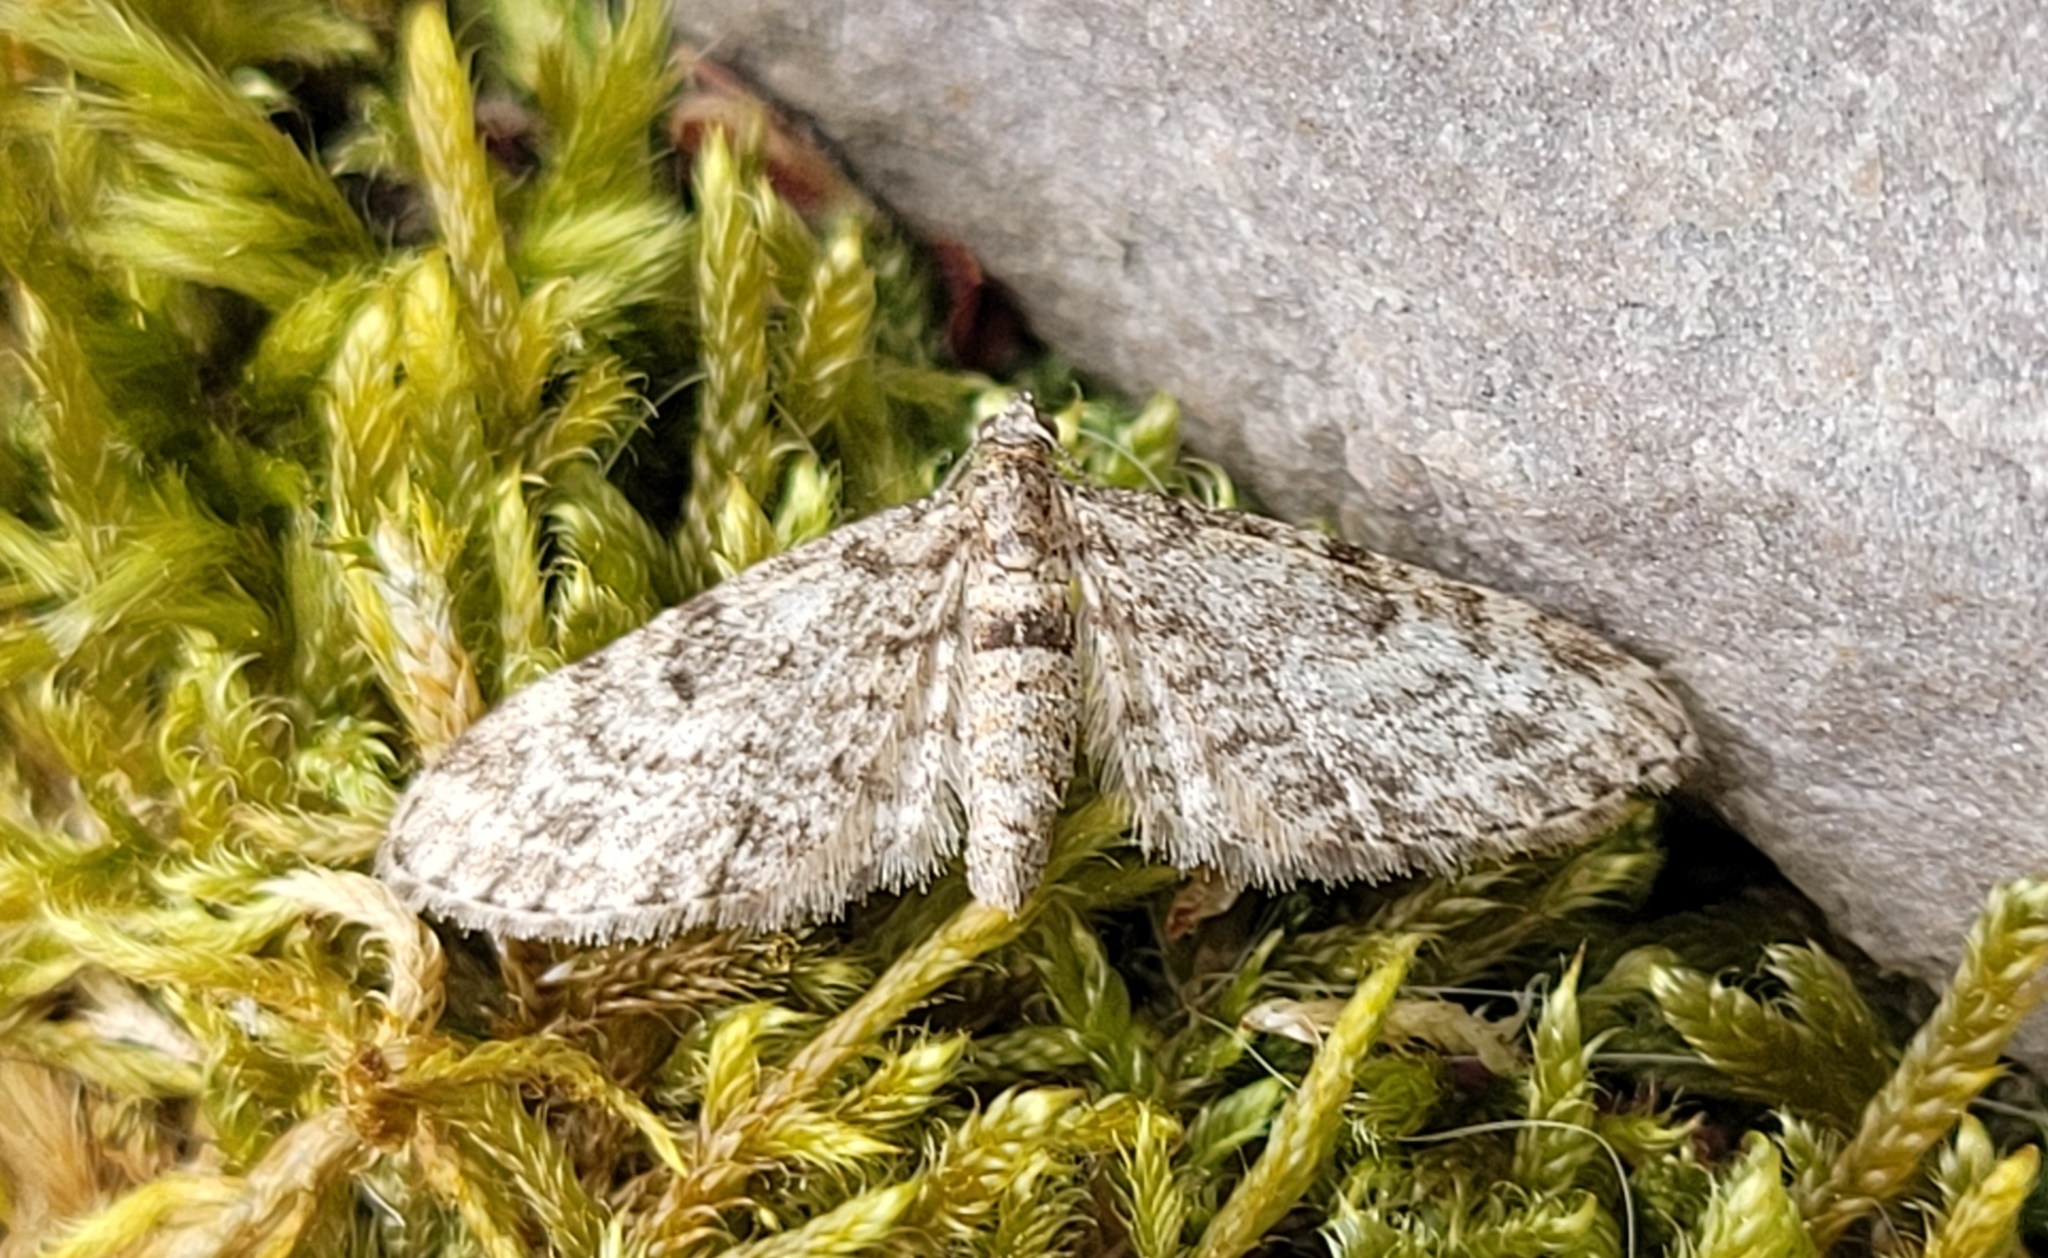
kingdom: Animalia
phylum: Arthropoda
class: Insecta
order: Lepidoptera
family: Geometridae
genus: Eupithecia
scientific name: Eupithecia tantillaria
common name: Dwarf pug
